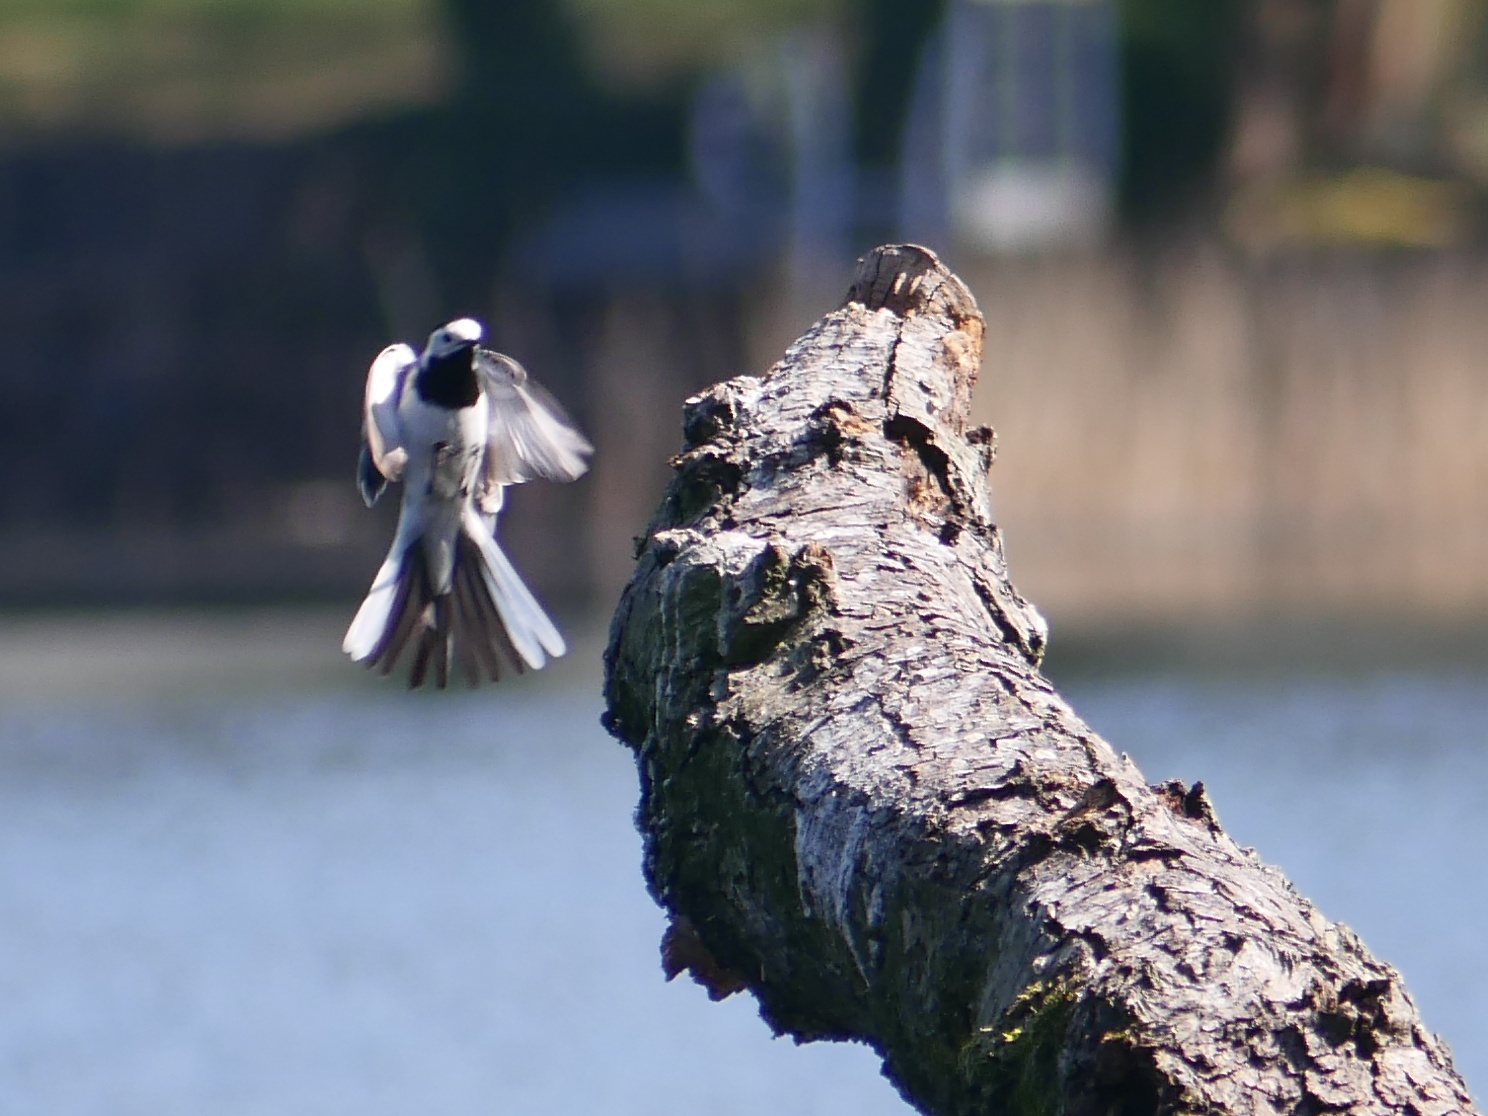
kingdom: Animalia
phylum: Chordata
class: Aves
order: Passeriformes
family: Motacillidae
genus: Motacilla
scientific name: Motacilla alba
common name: White wagtail
